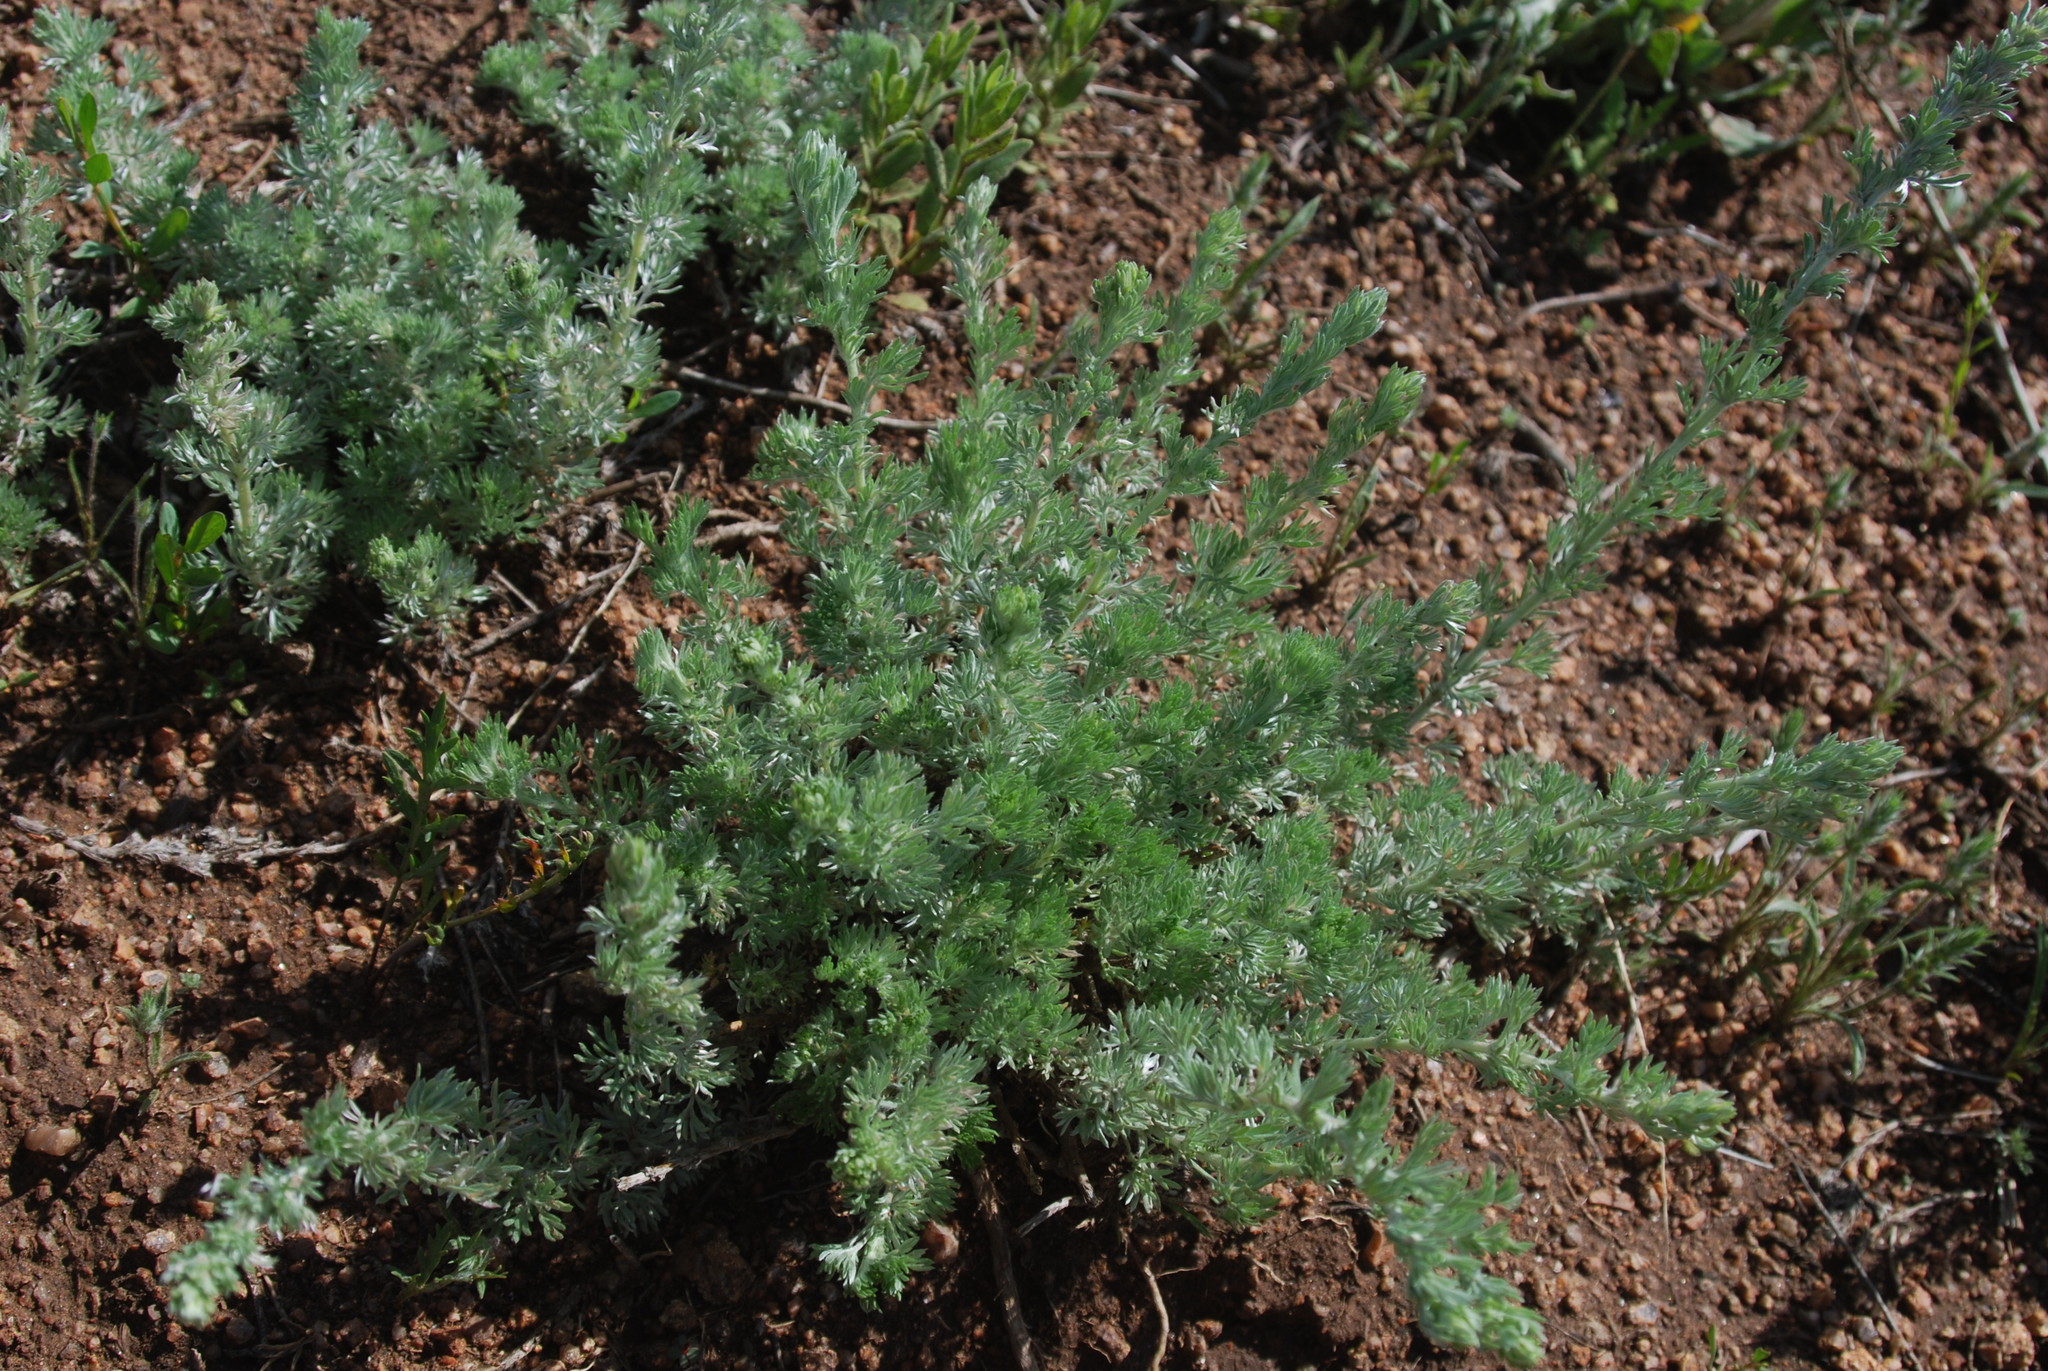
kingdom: Plantae
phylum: Tracheophyta
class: Magnoliopsida
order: Asterales
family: Asteraceae
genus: Artemisia
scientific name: Artemisia frigida
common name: Prairie sagewort
